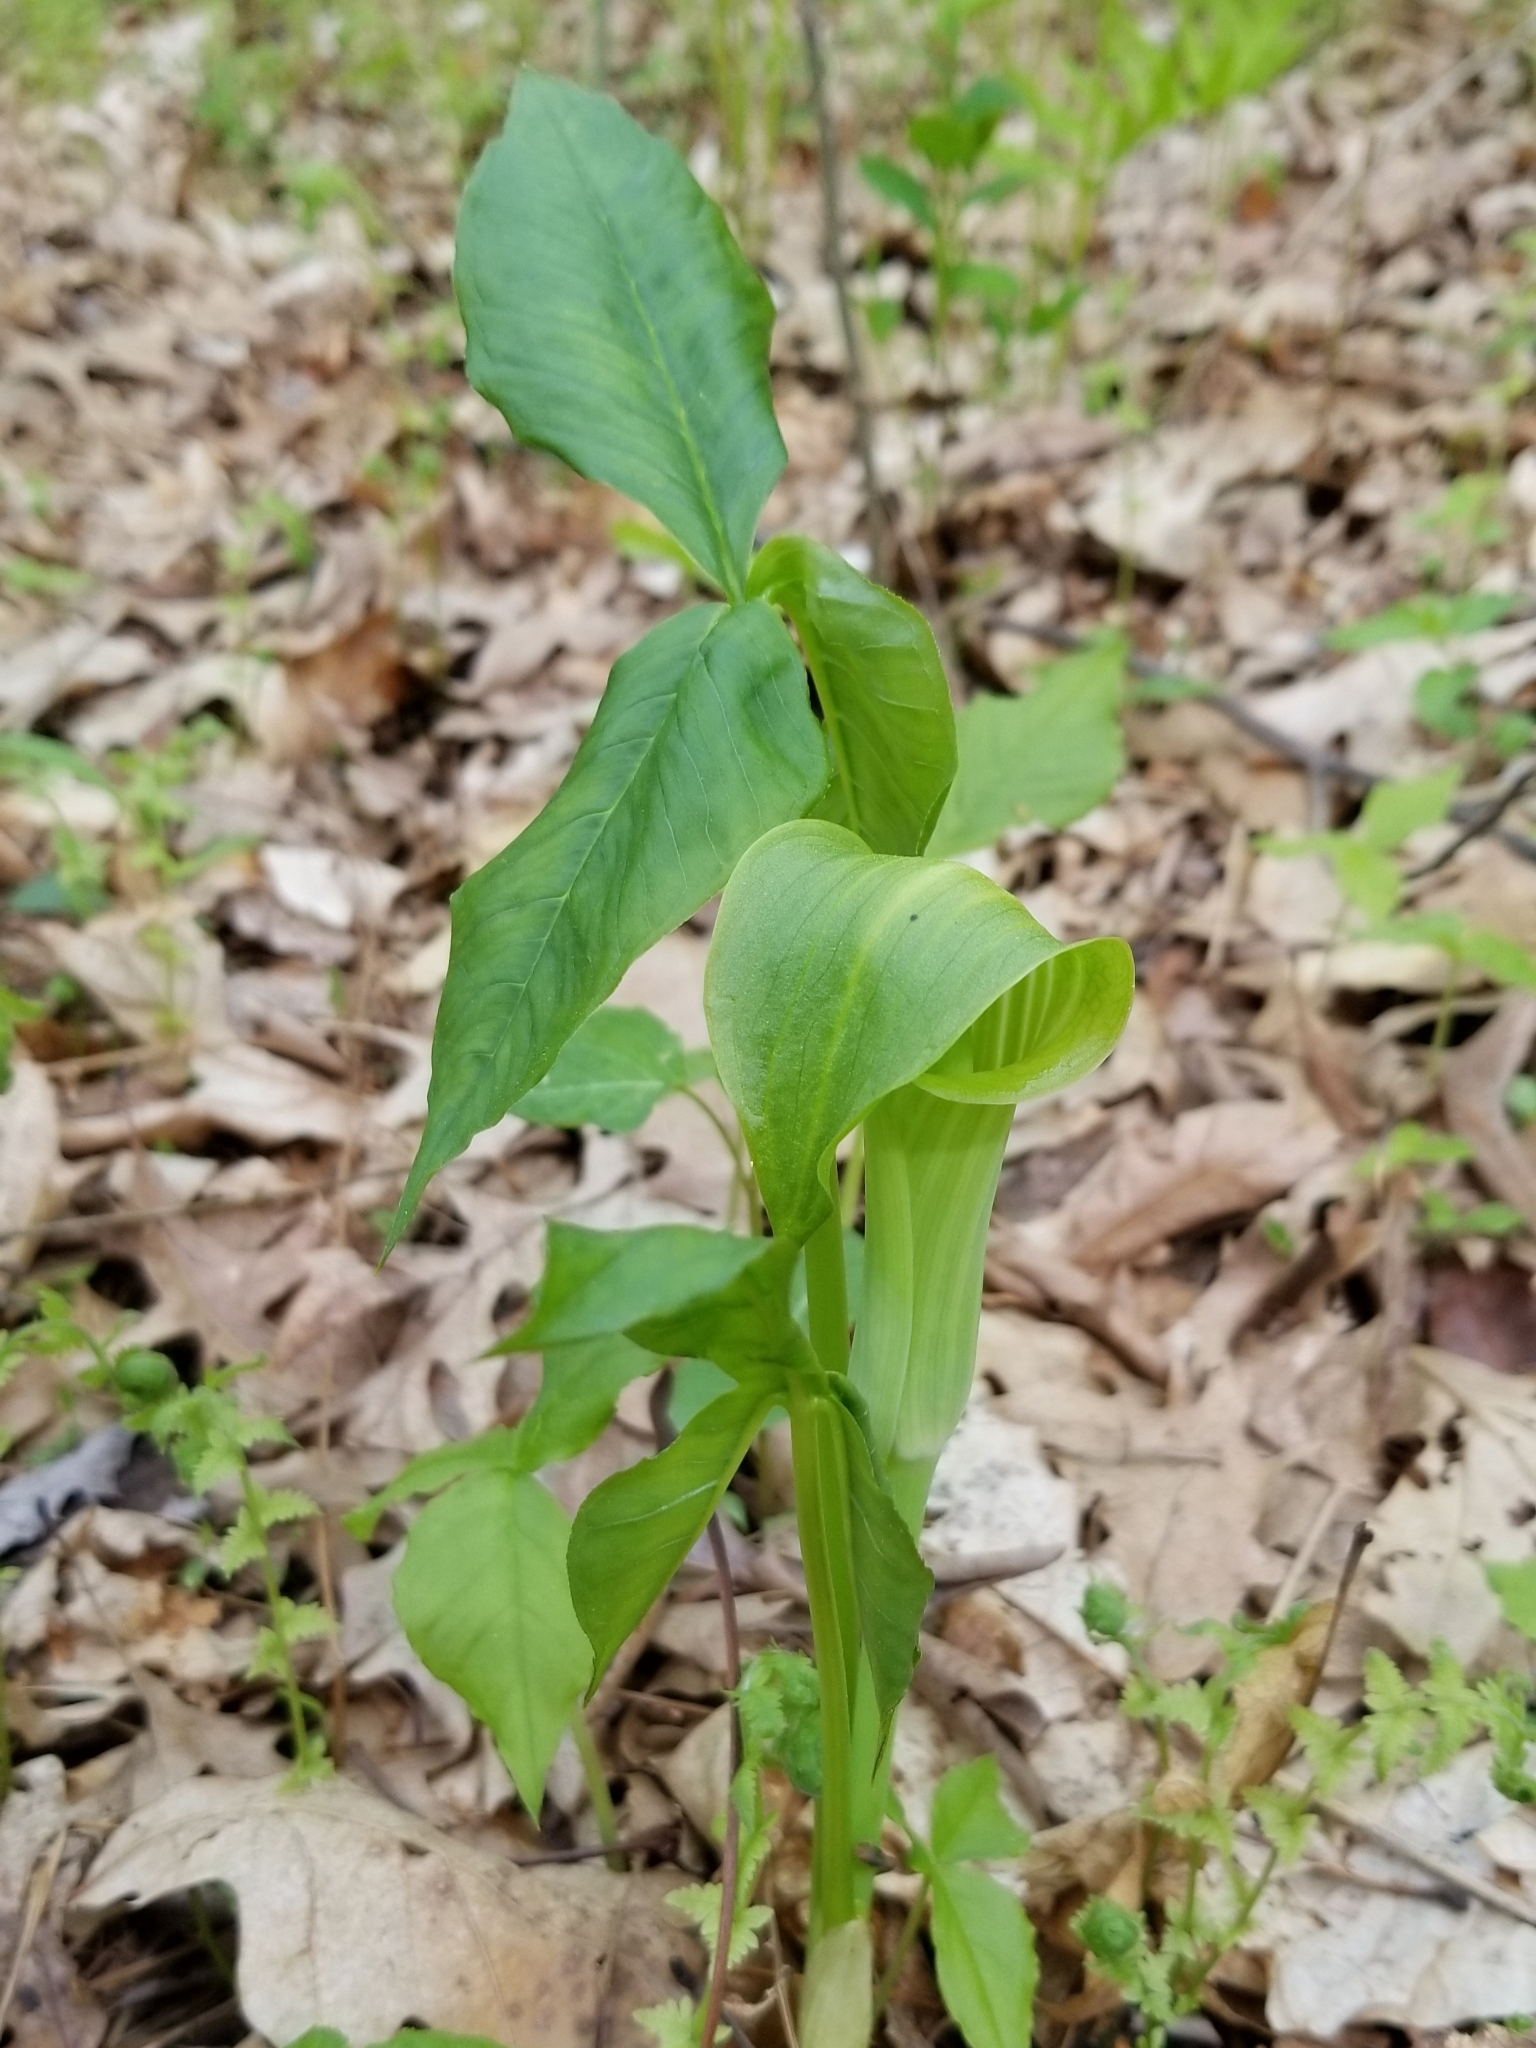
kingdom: Plantae
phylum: Tracheophyta
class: Liliopsida
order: Alismatales
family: Araceae
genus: Arisaema
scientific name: Arisaema triphyllum
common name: Jack-in-the-pulpit
